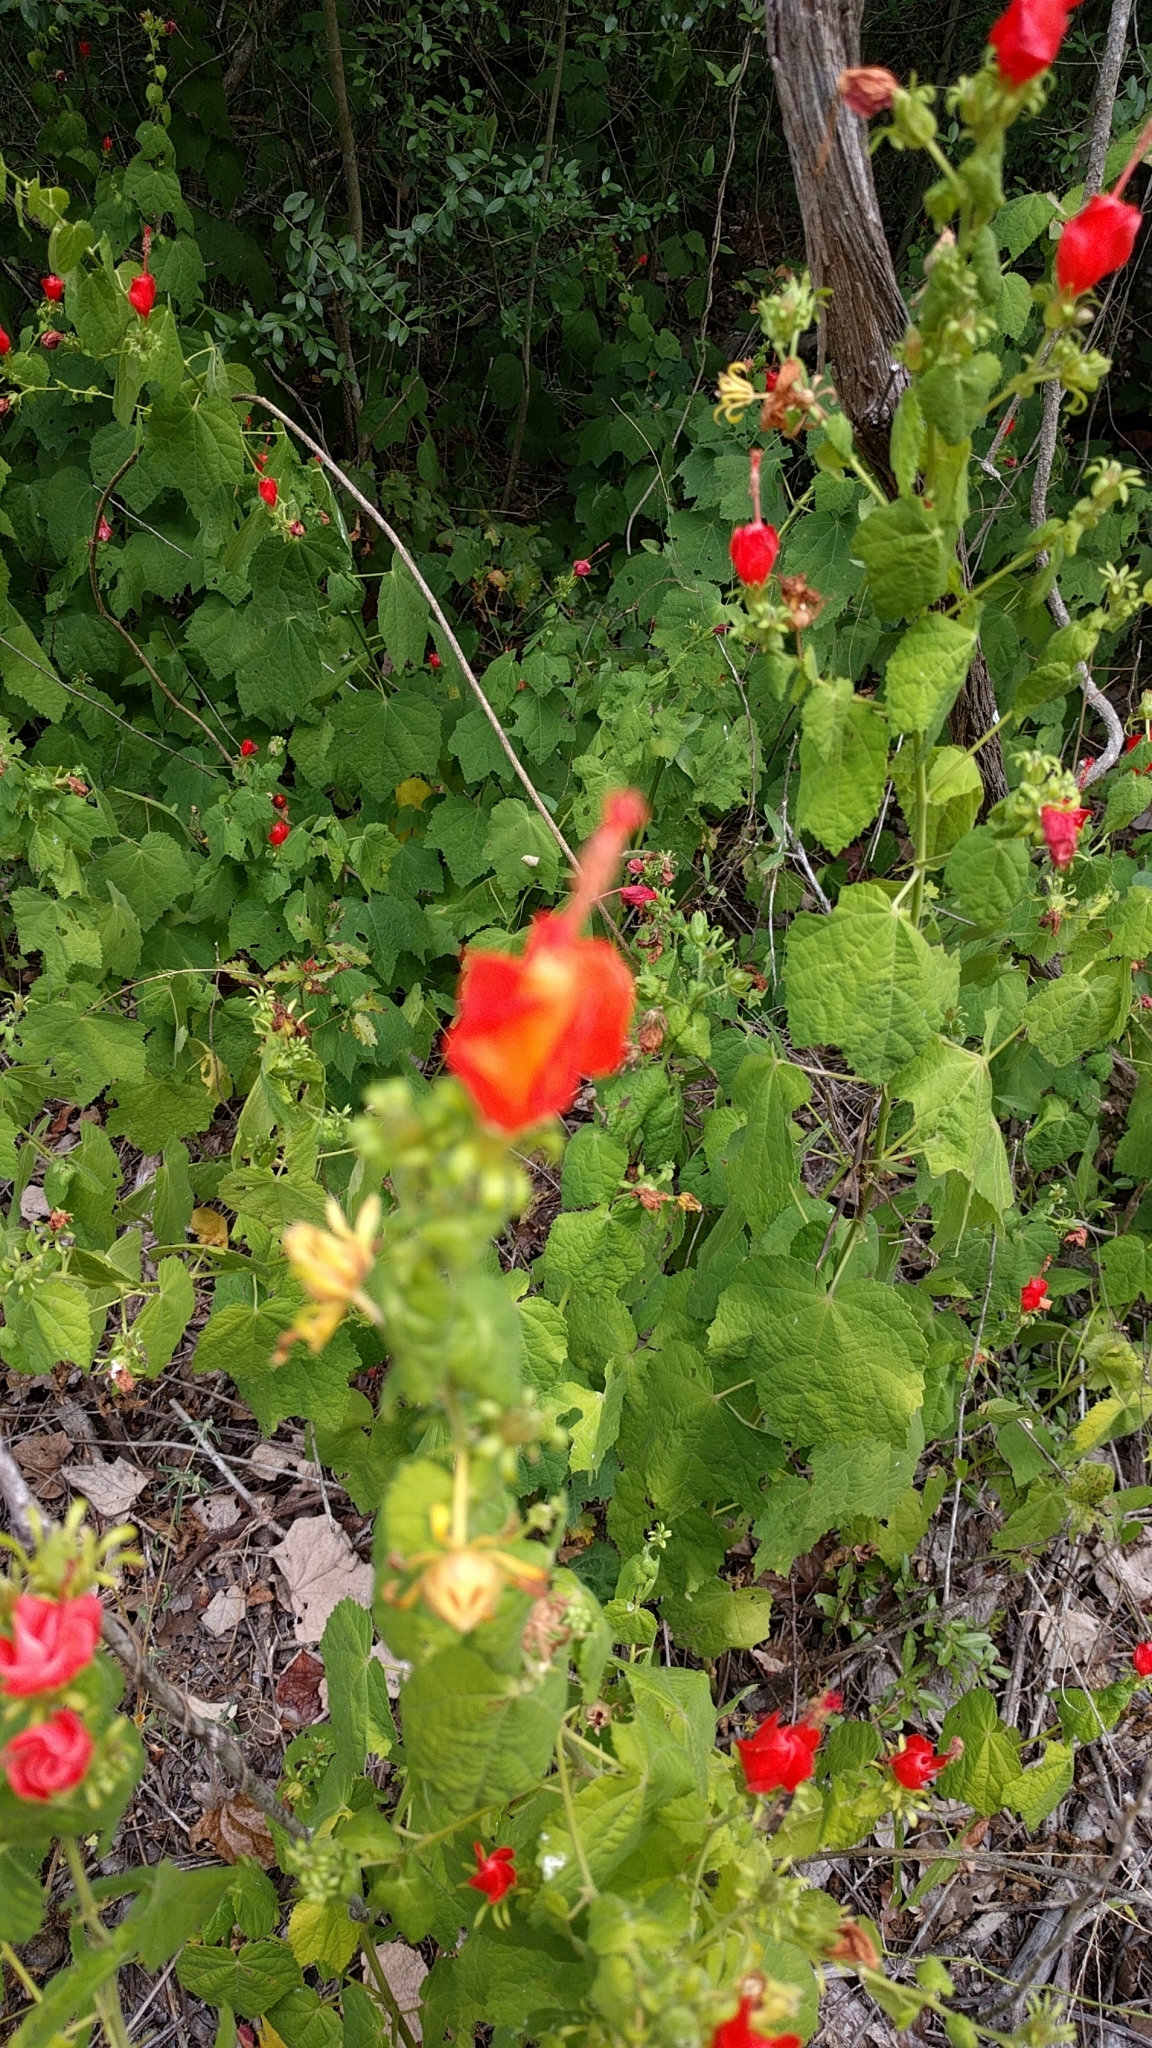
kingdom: Plantae
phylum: Tracheophyta
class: Magnoliopsida
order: Malvales
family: Malvaceae
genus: Malvaviscus
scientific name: Malvaviscus arboreus
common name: Wax mallow
